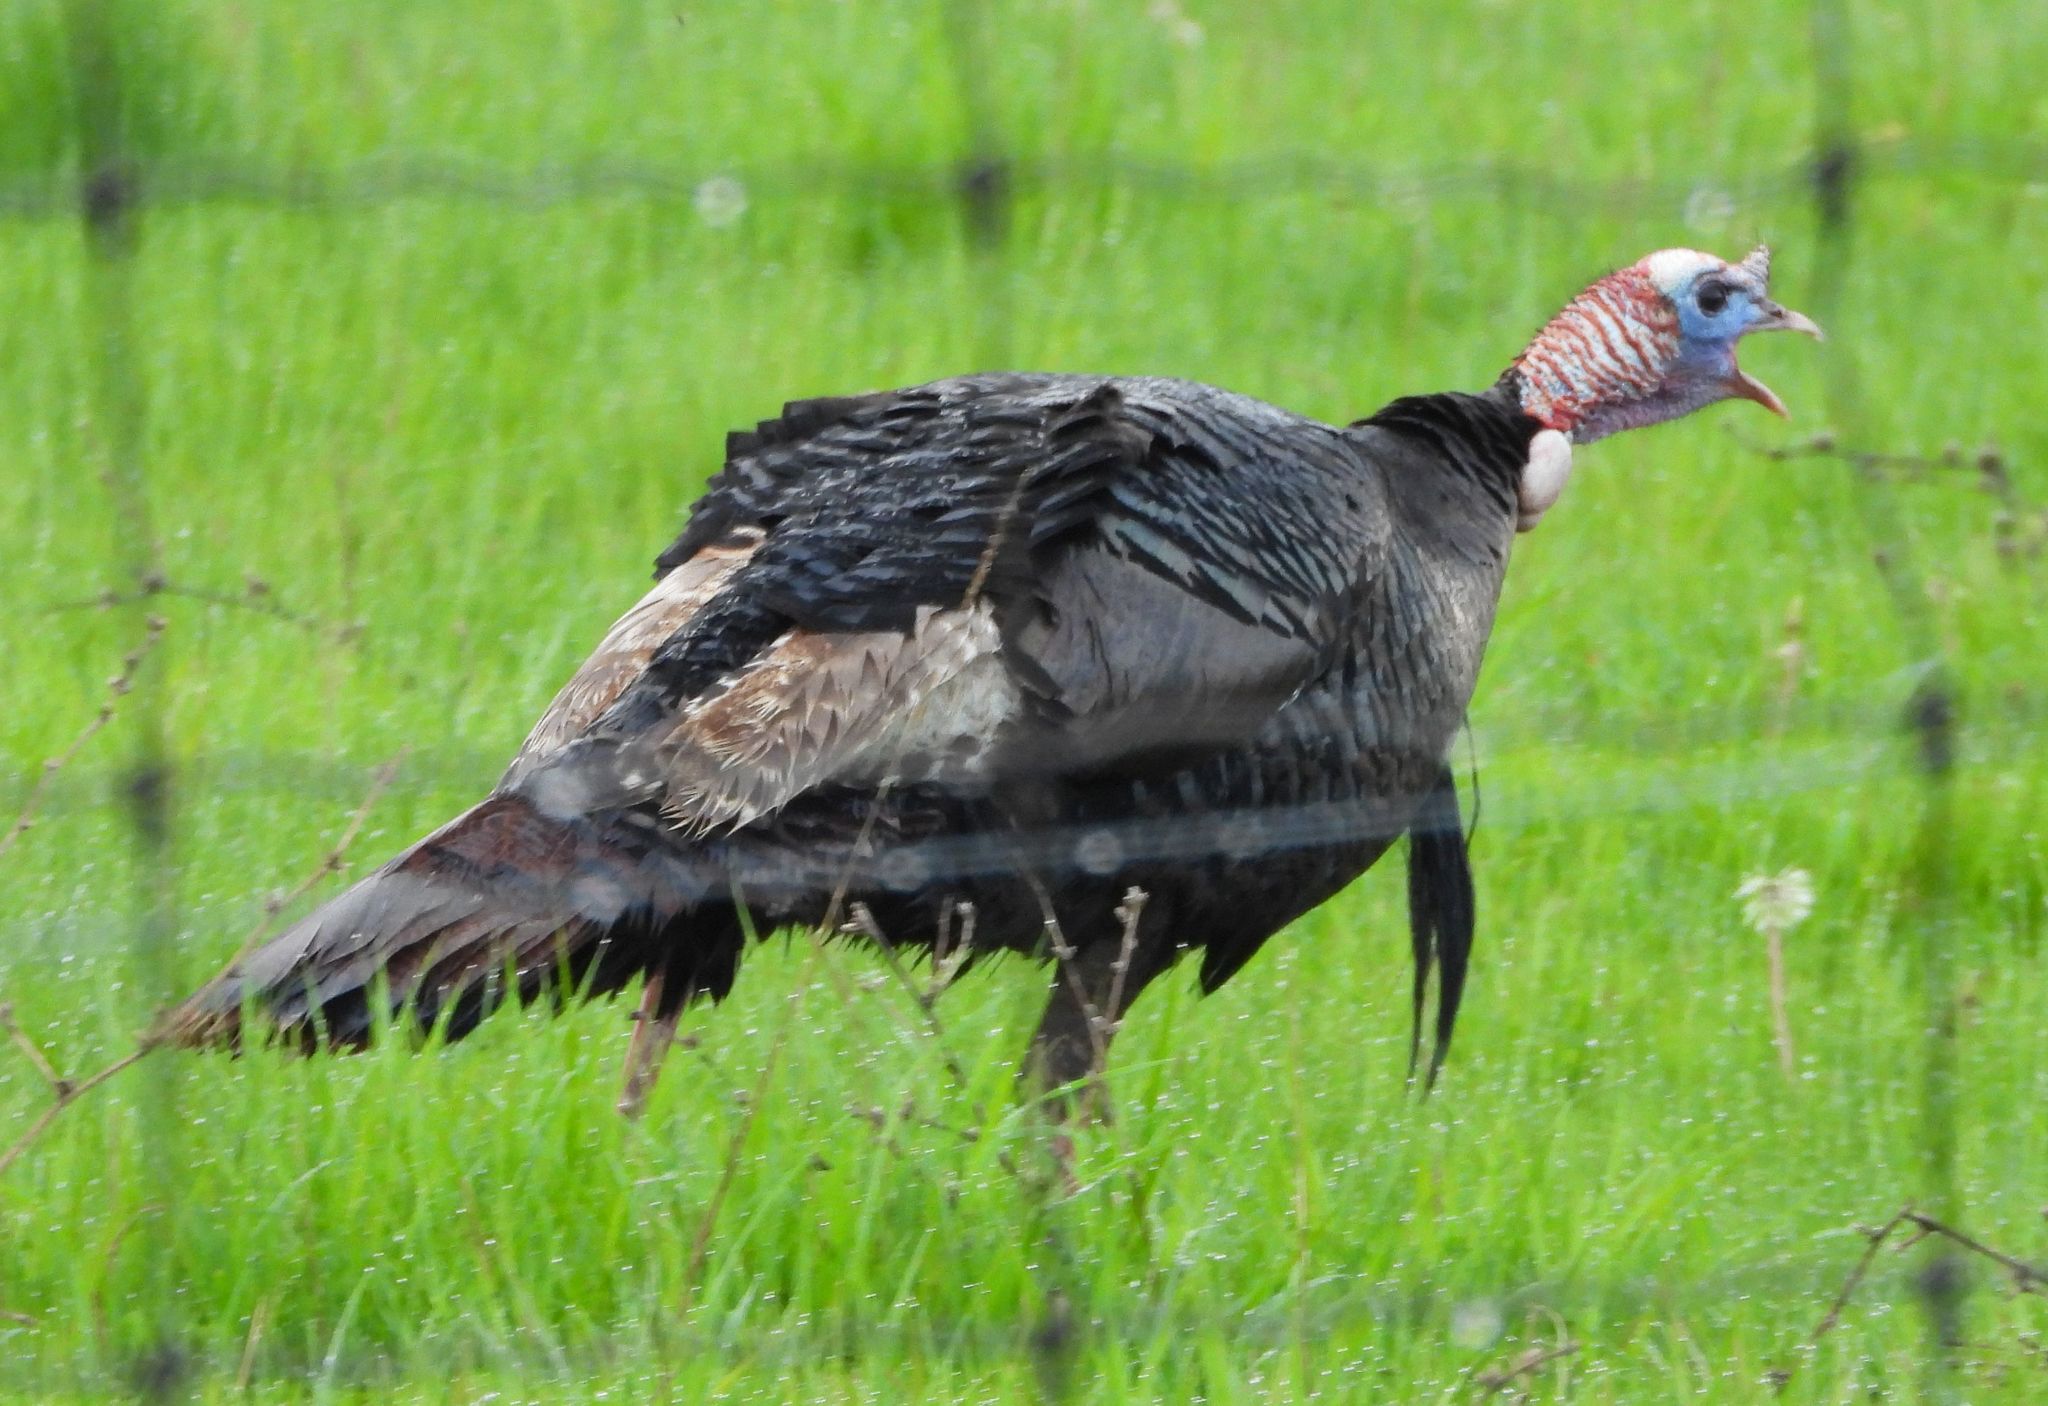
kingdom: Animalia
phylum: Chordata
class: Aves
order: Galliformes
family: Phasianidae
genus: Meleagris
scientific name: Meleagris gallopavo
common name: Wild turkey
